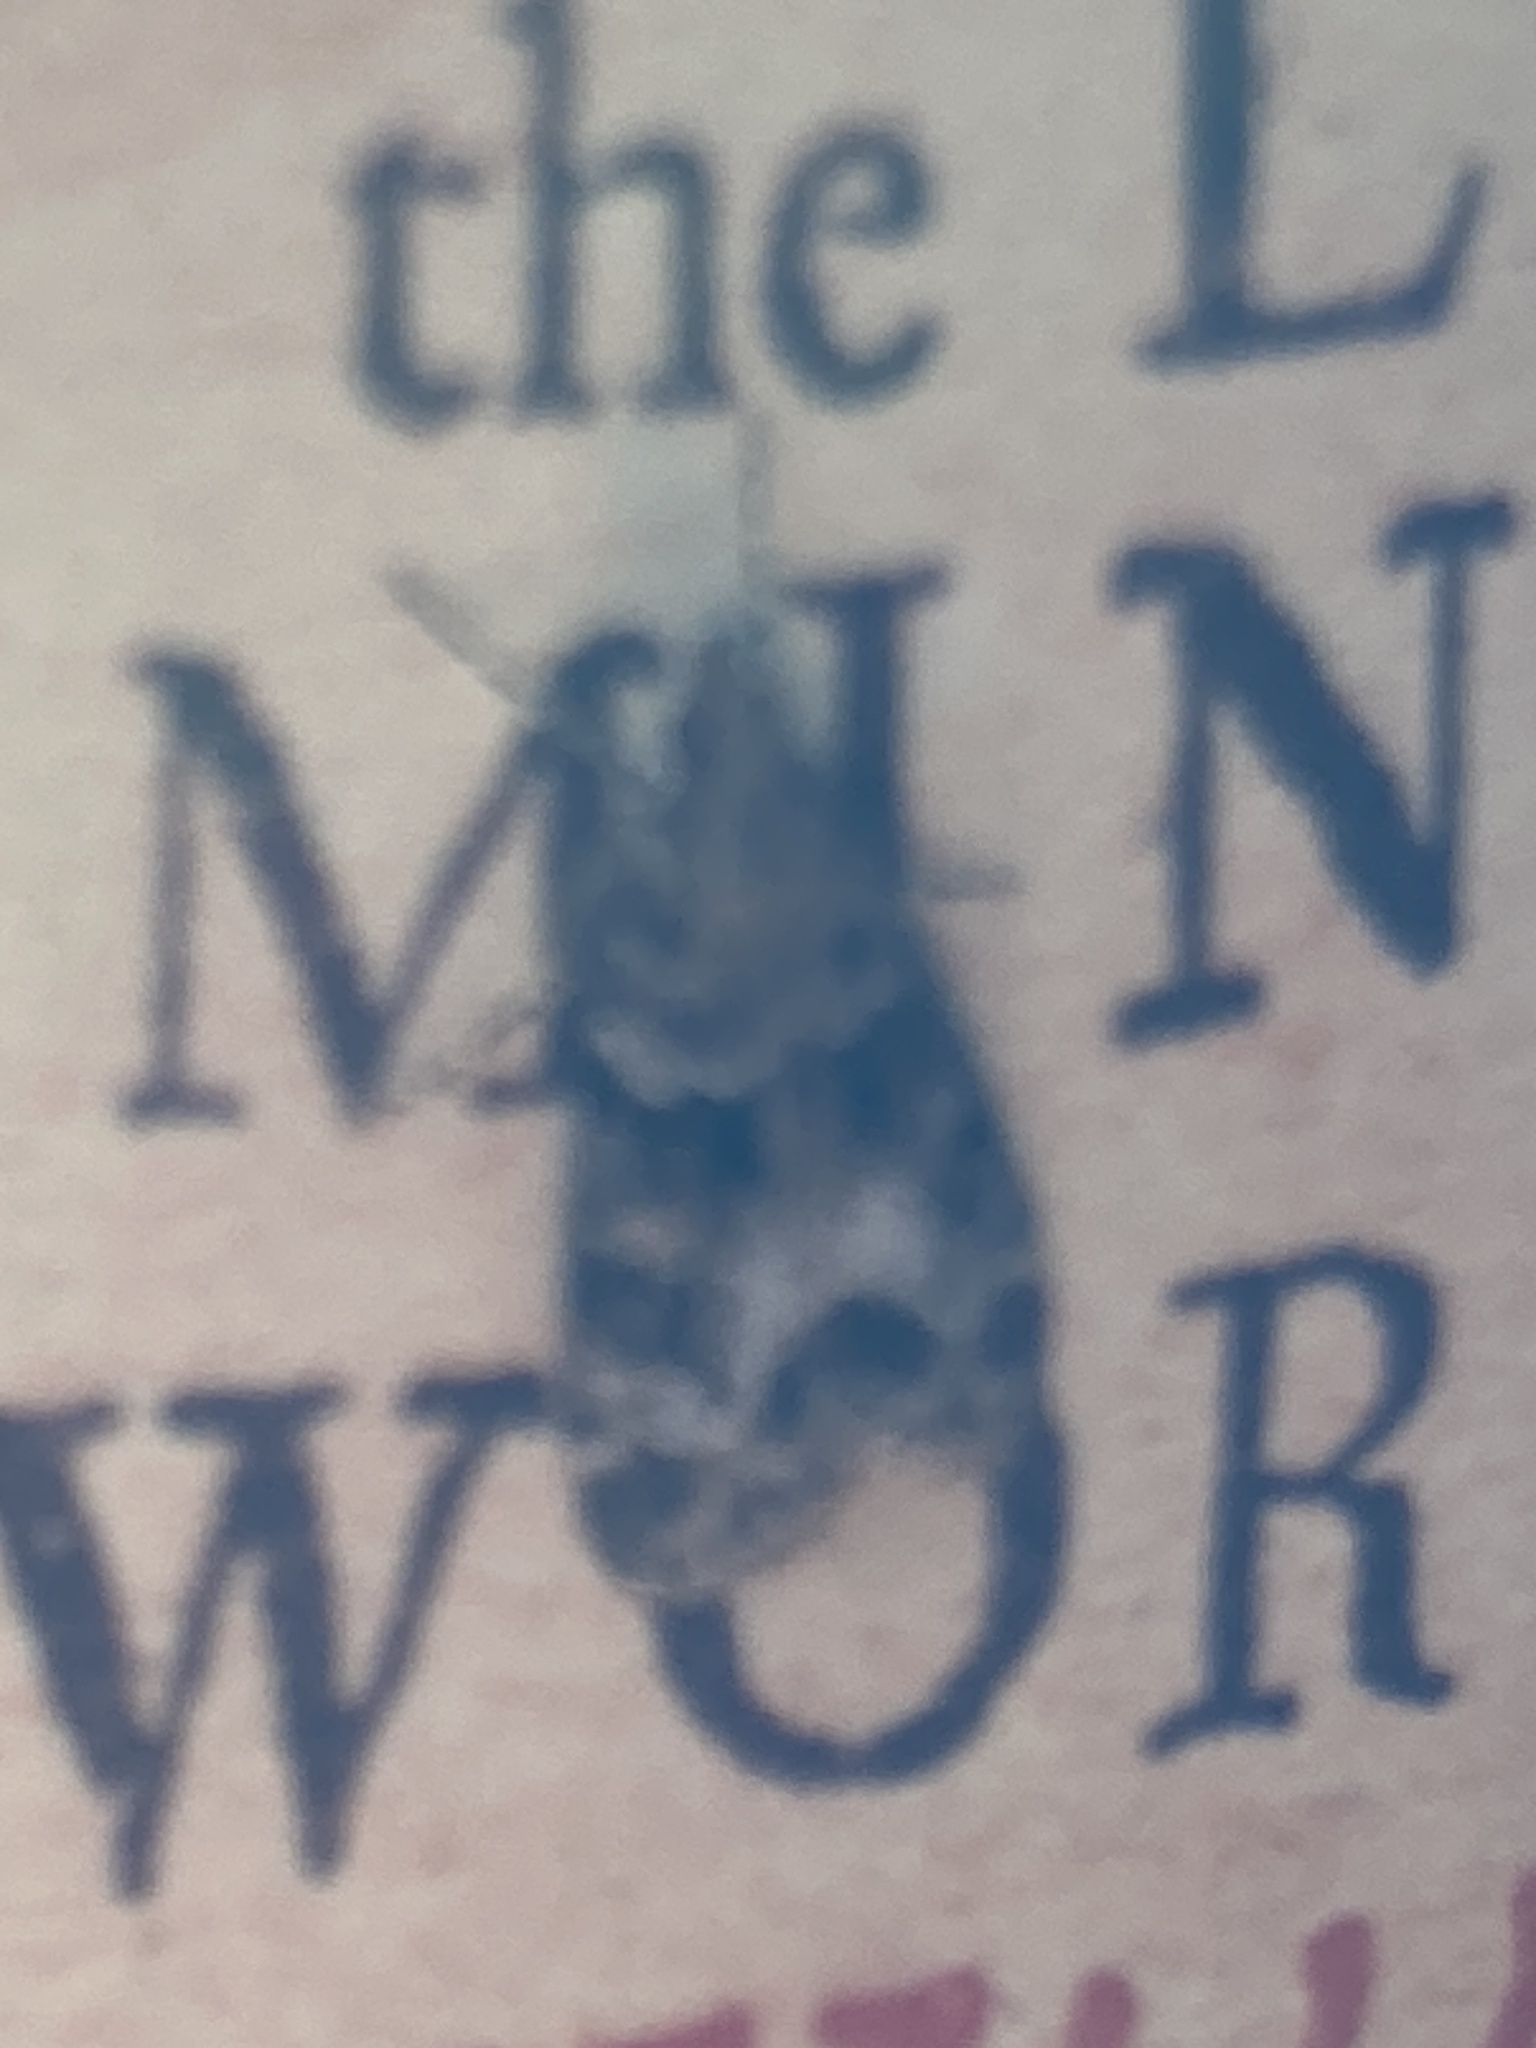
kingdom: Animalia
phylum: Arthropoda
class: Insecta
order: Lepidoptera
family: Crambidae
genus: Eudonia
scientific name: Eudonia mercurella
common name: Small grey
